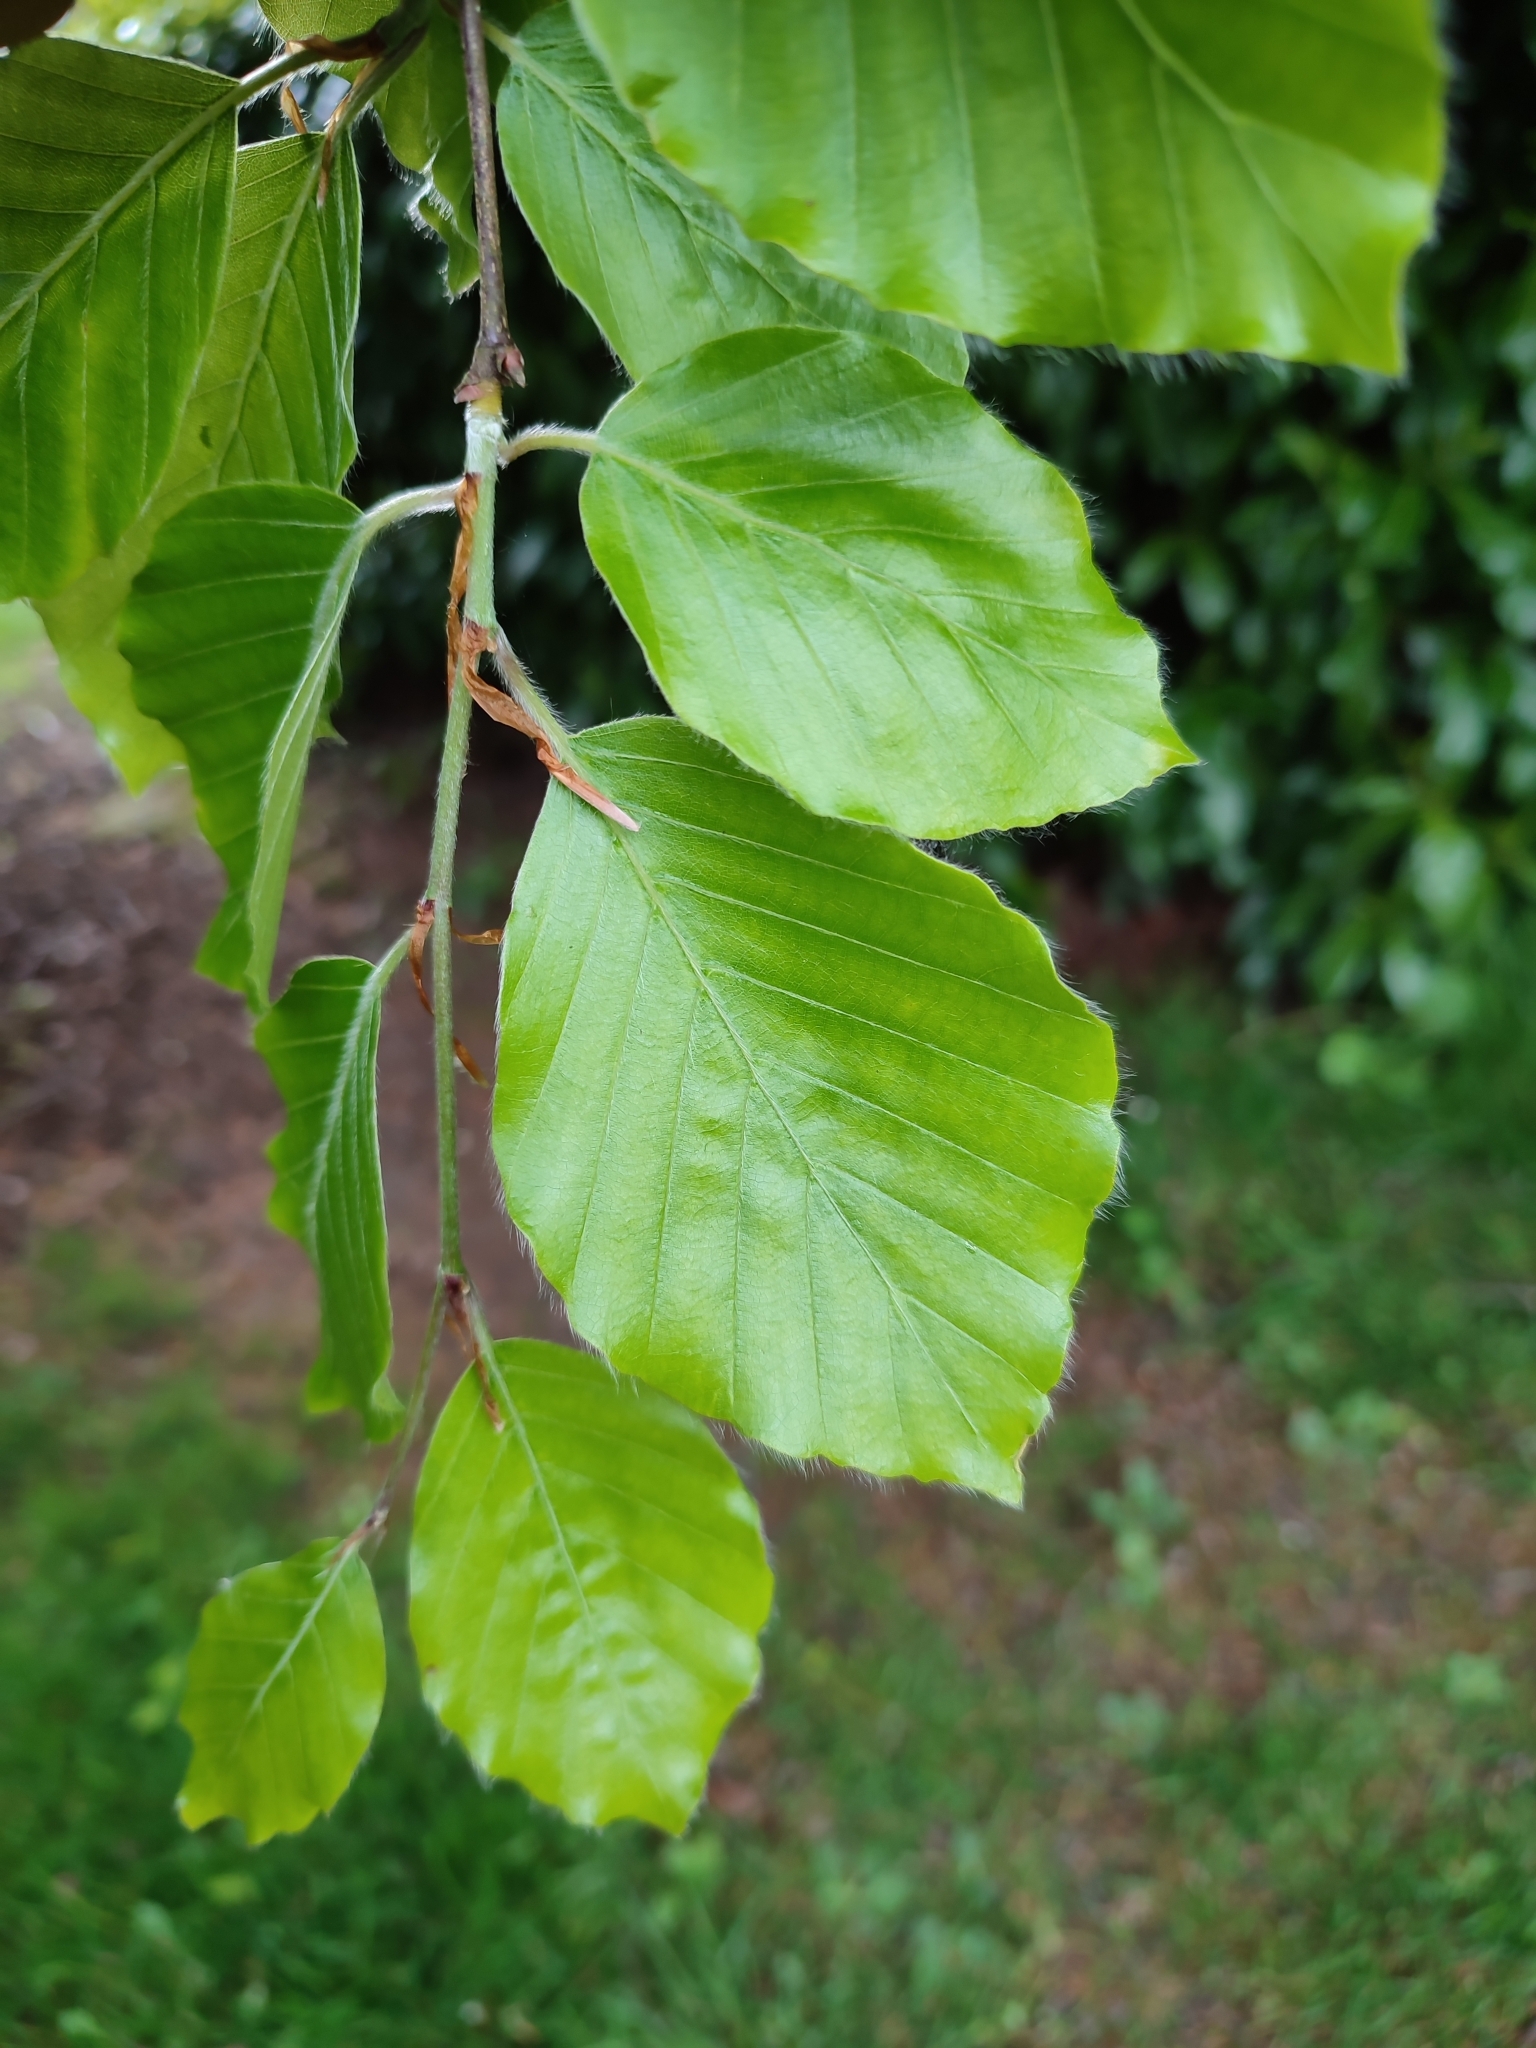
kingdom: Plantae
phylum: Tracheophyta
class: Magnoliopsida
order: Fagales
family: Fagaceae
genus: Fagus
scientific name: Fagus sylvatica
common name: Beech
